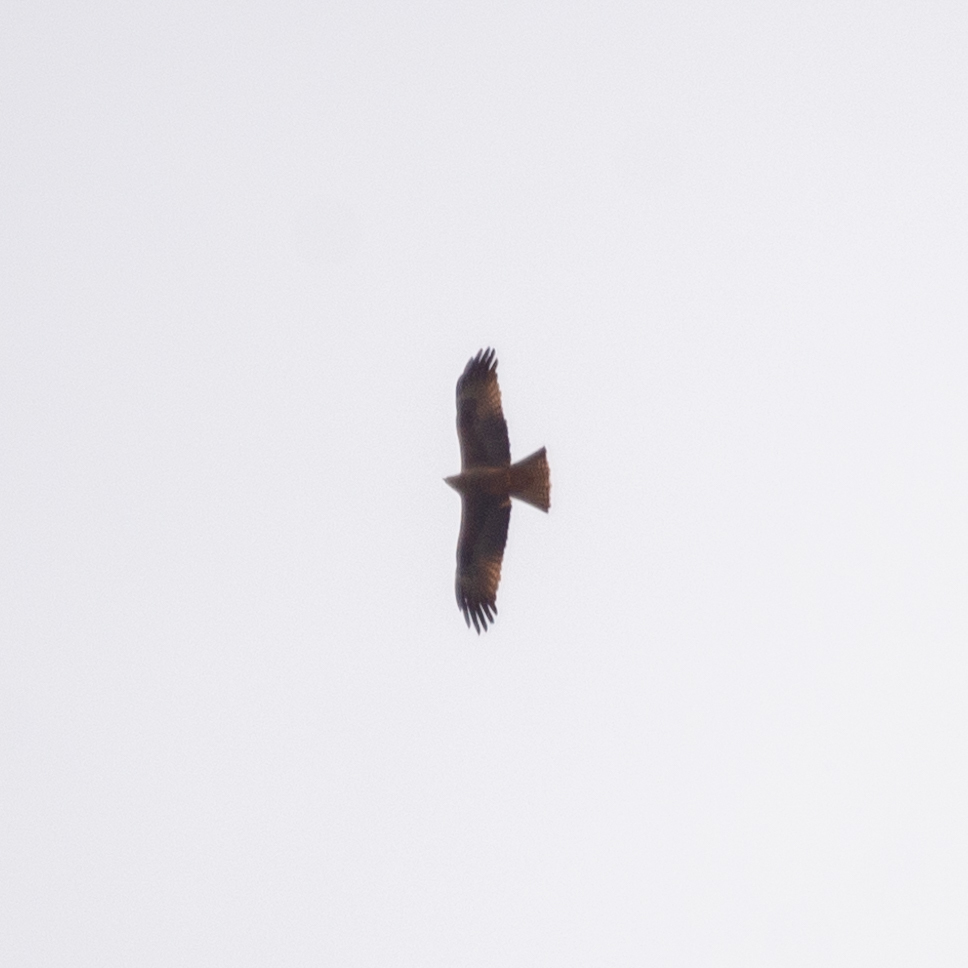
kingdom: Animalia
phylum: Chordata
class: Aves
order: Accipitriformes
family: Accipitridae
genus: Milvus
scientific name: Milvus migrans
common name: Black kite
